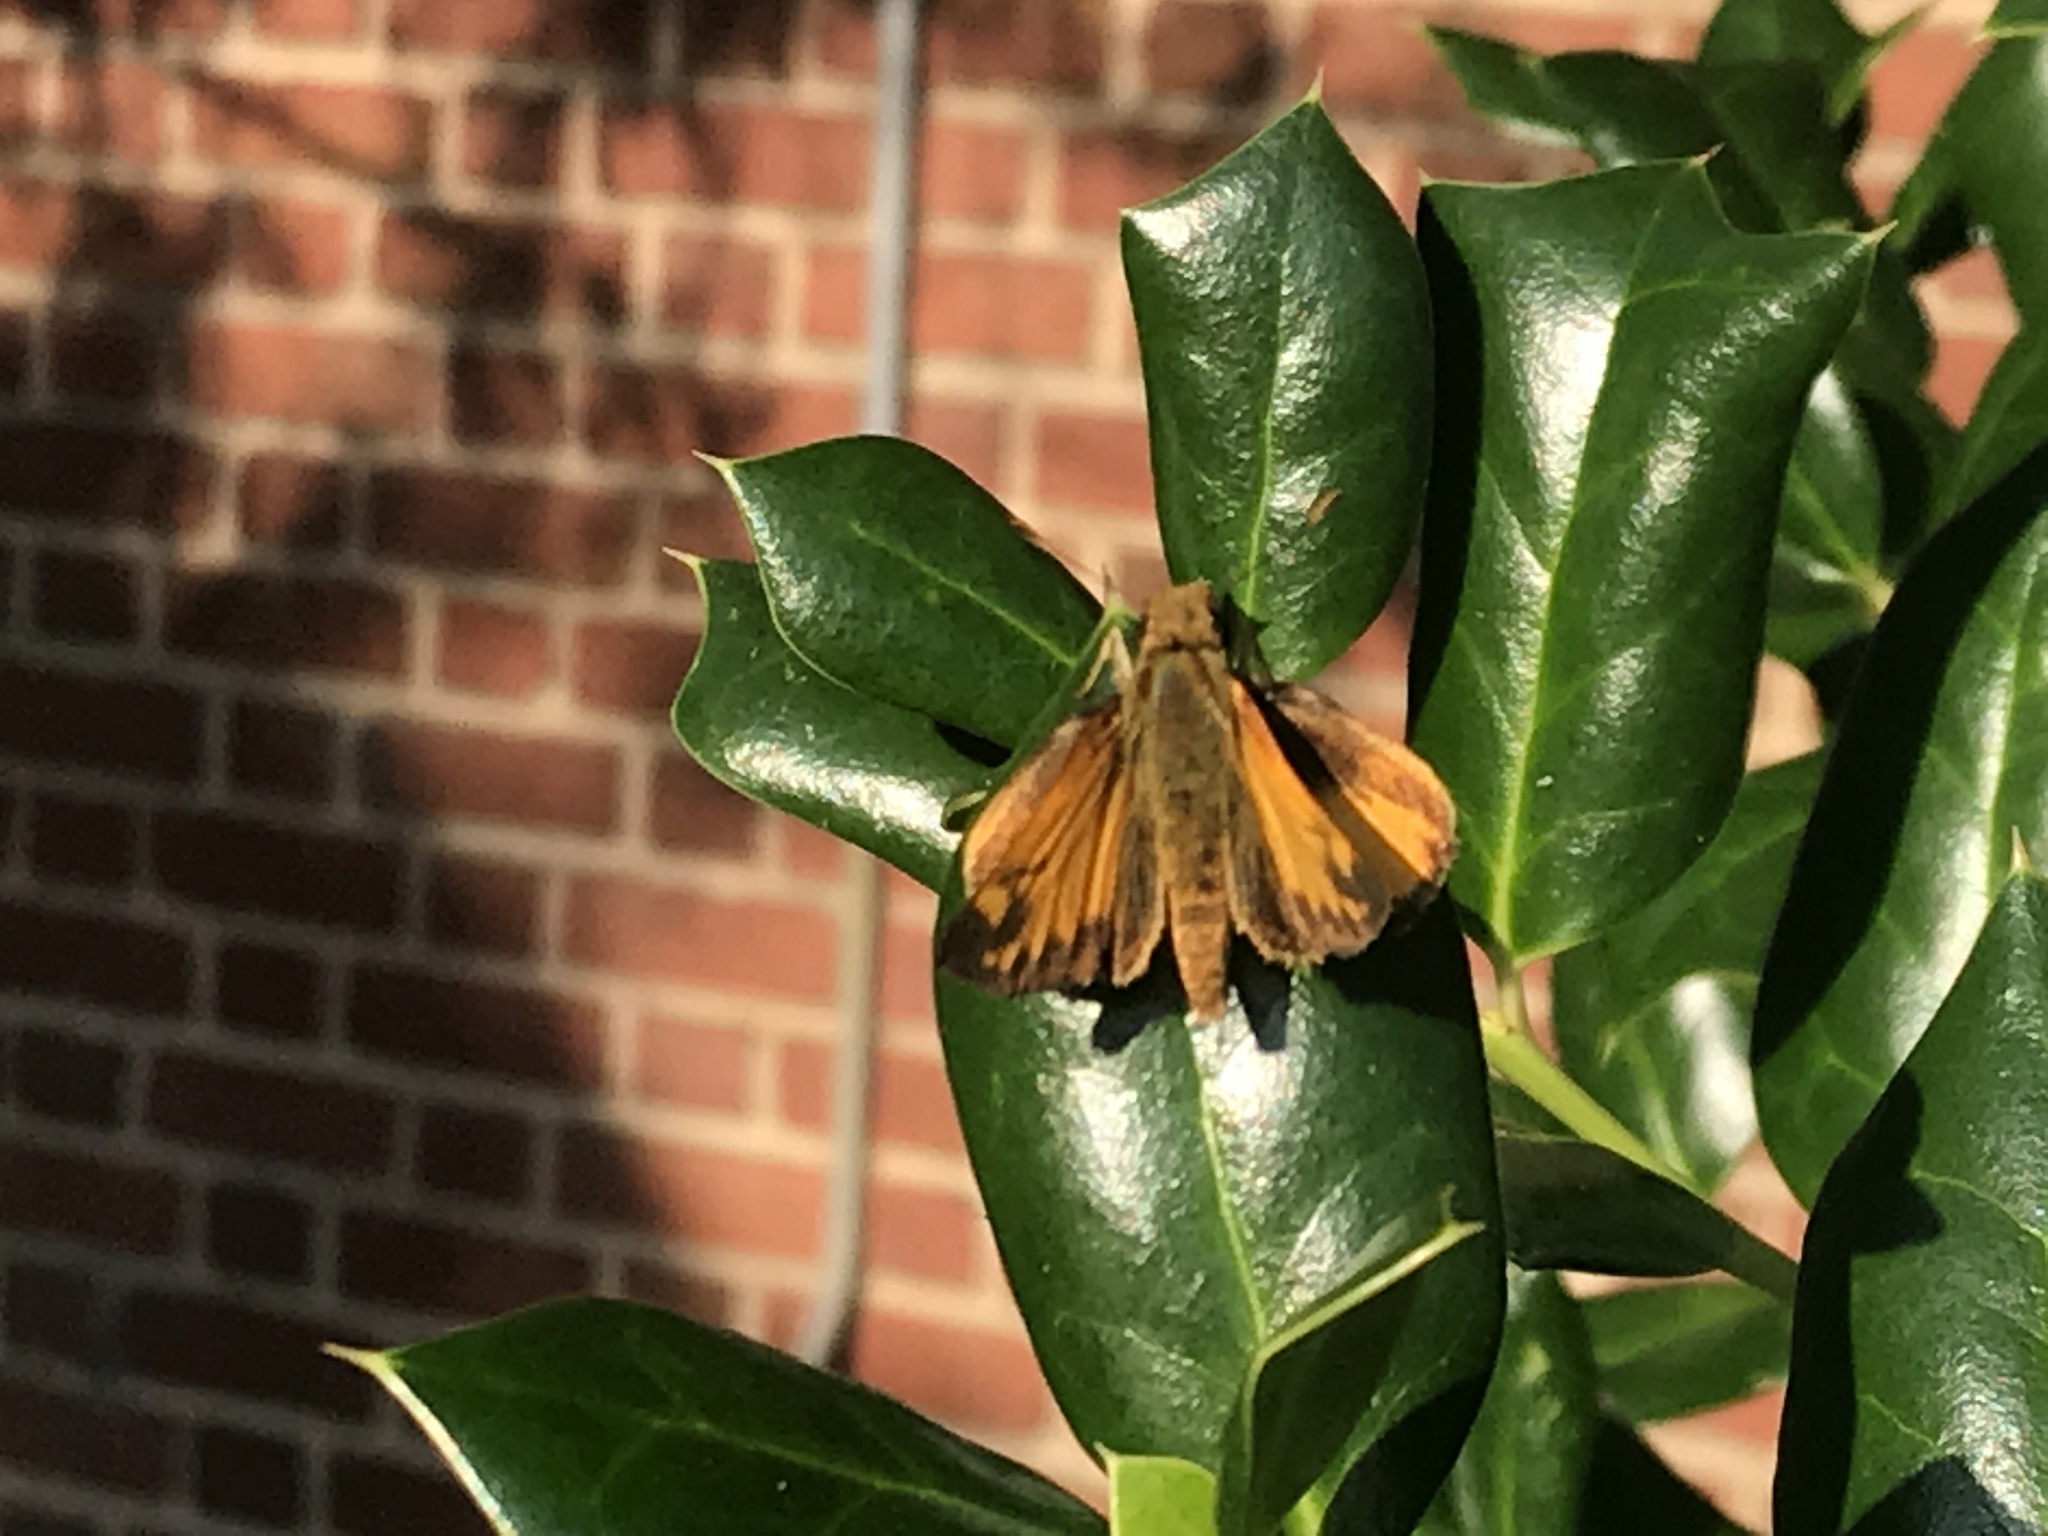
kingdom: Animalia
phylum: Arthropoda
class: Insecta
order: Lepidoptera
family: Hesperiidae
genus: Lon
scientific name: Lon zabulon
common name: Zabulon skipper
